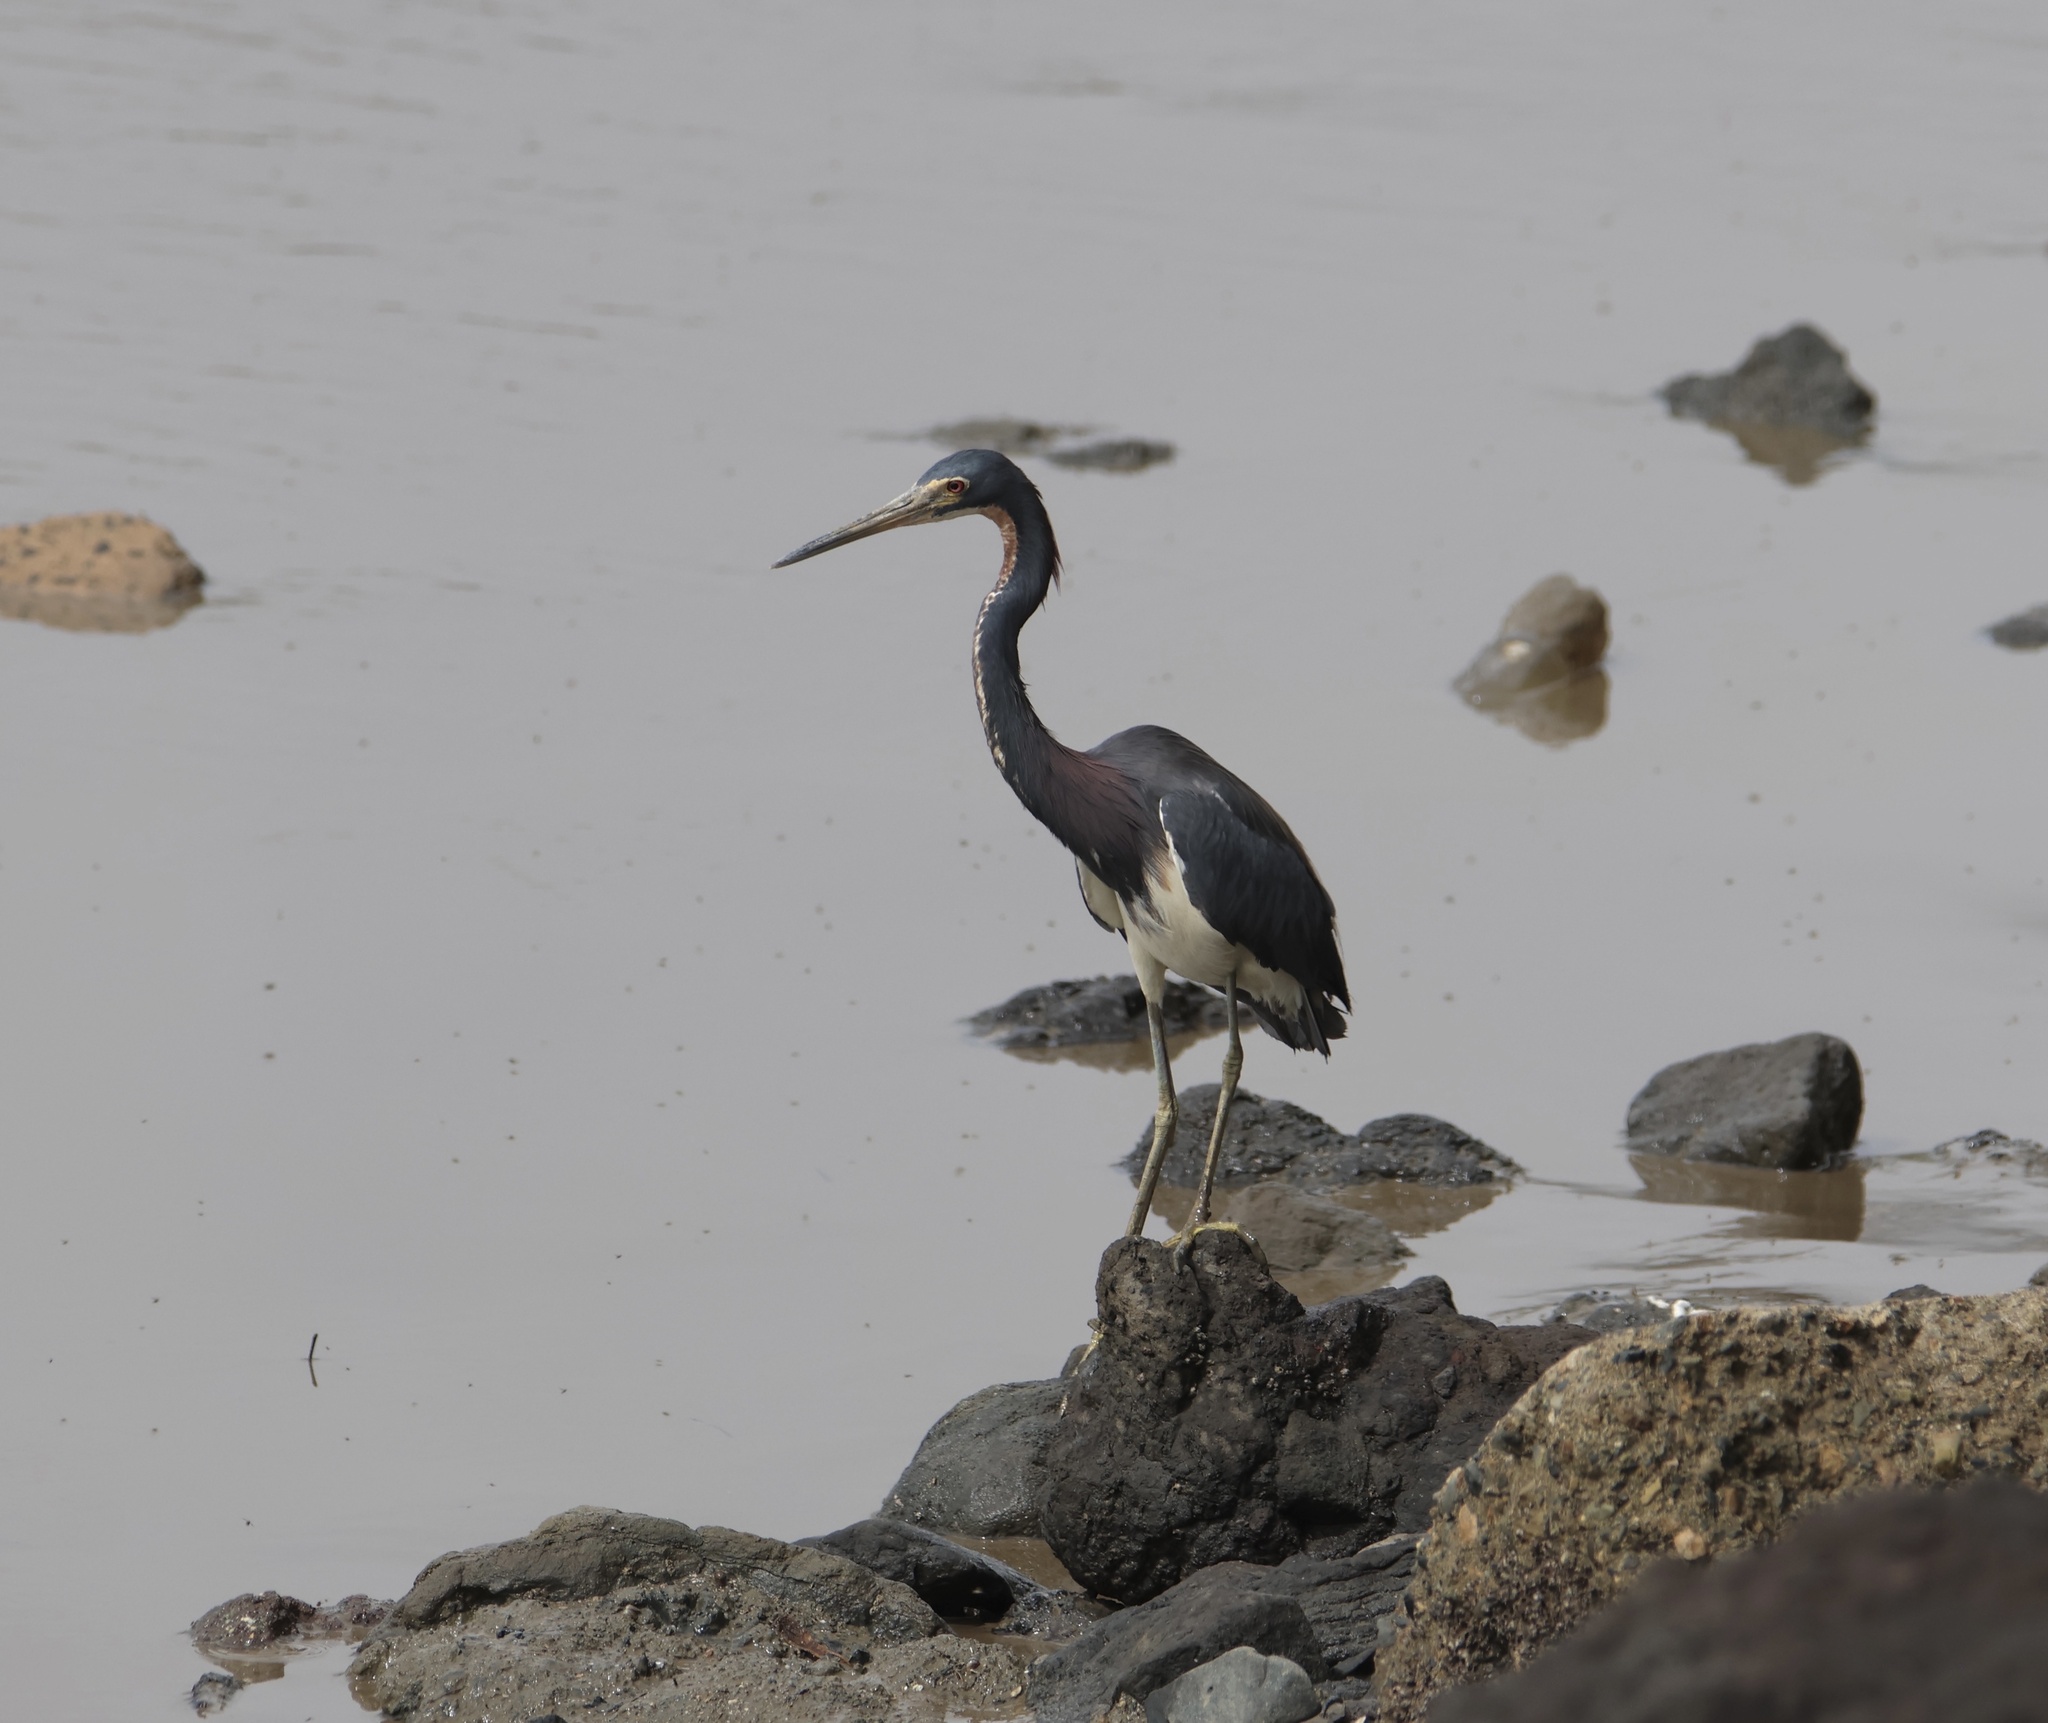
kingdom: Animalia
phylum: Chordata
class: Aves
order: Pelecaniformes
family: Ardeidae
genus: Egretta
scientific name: Egretta tricolor
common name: Tricolored heron
